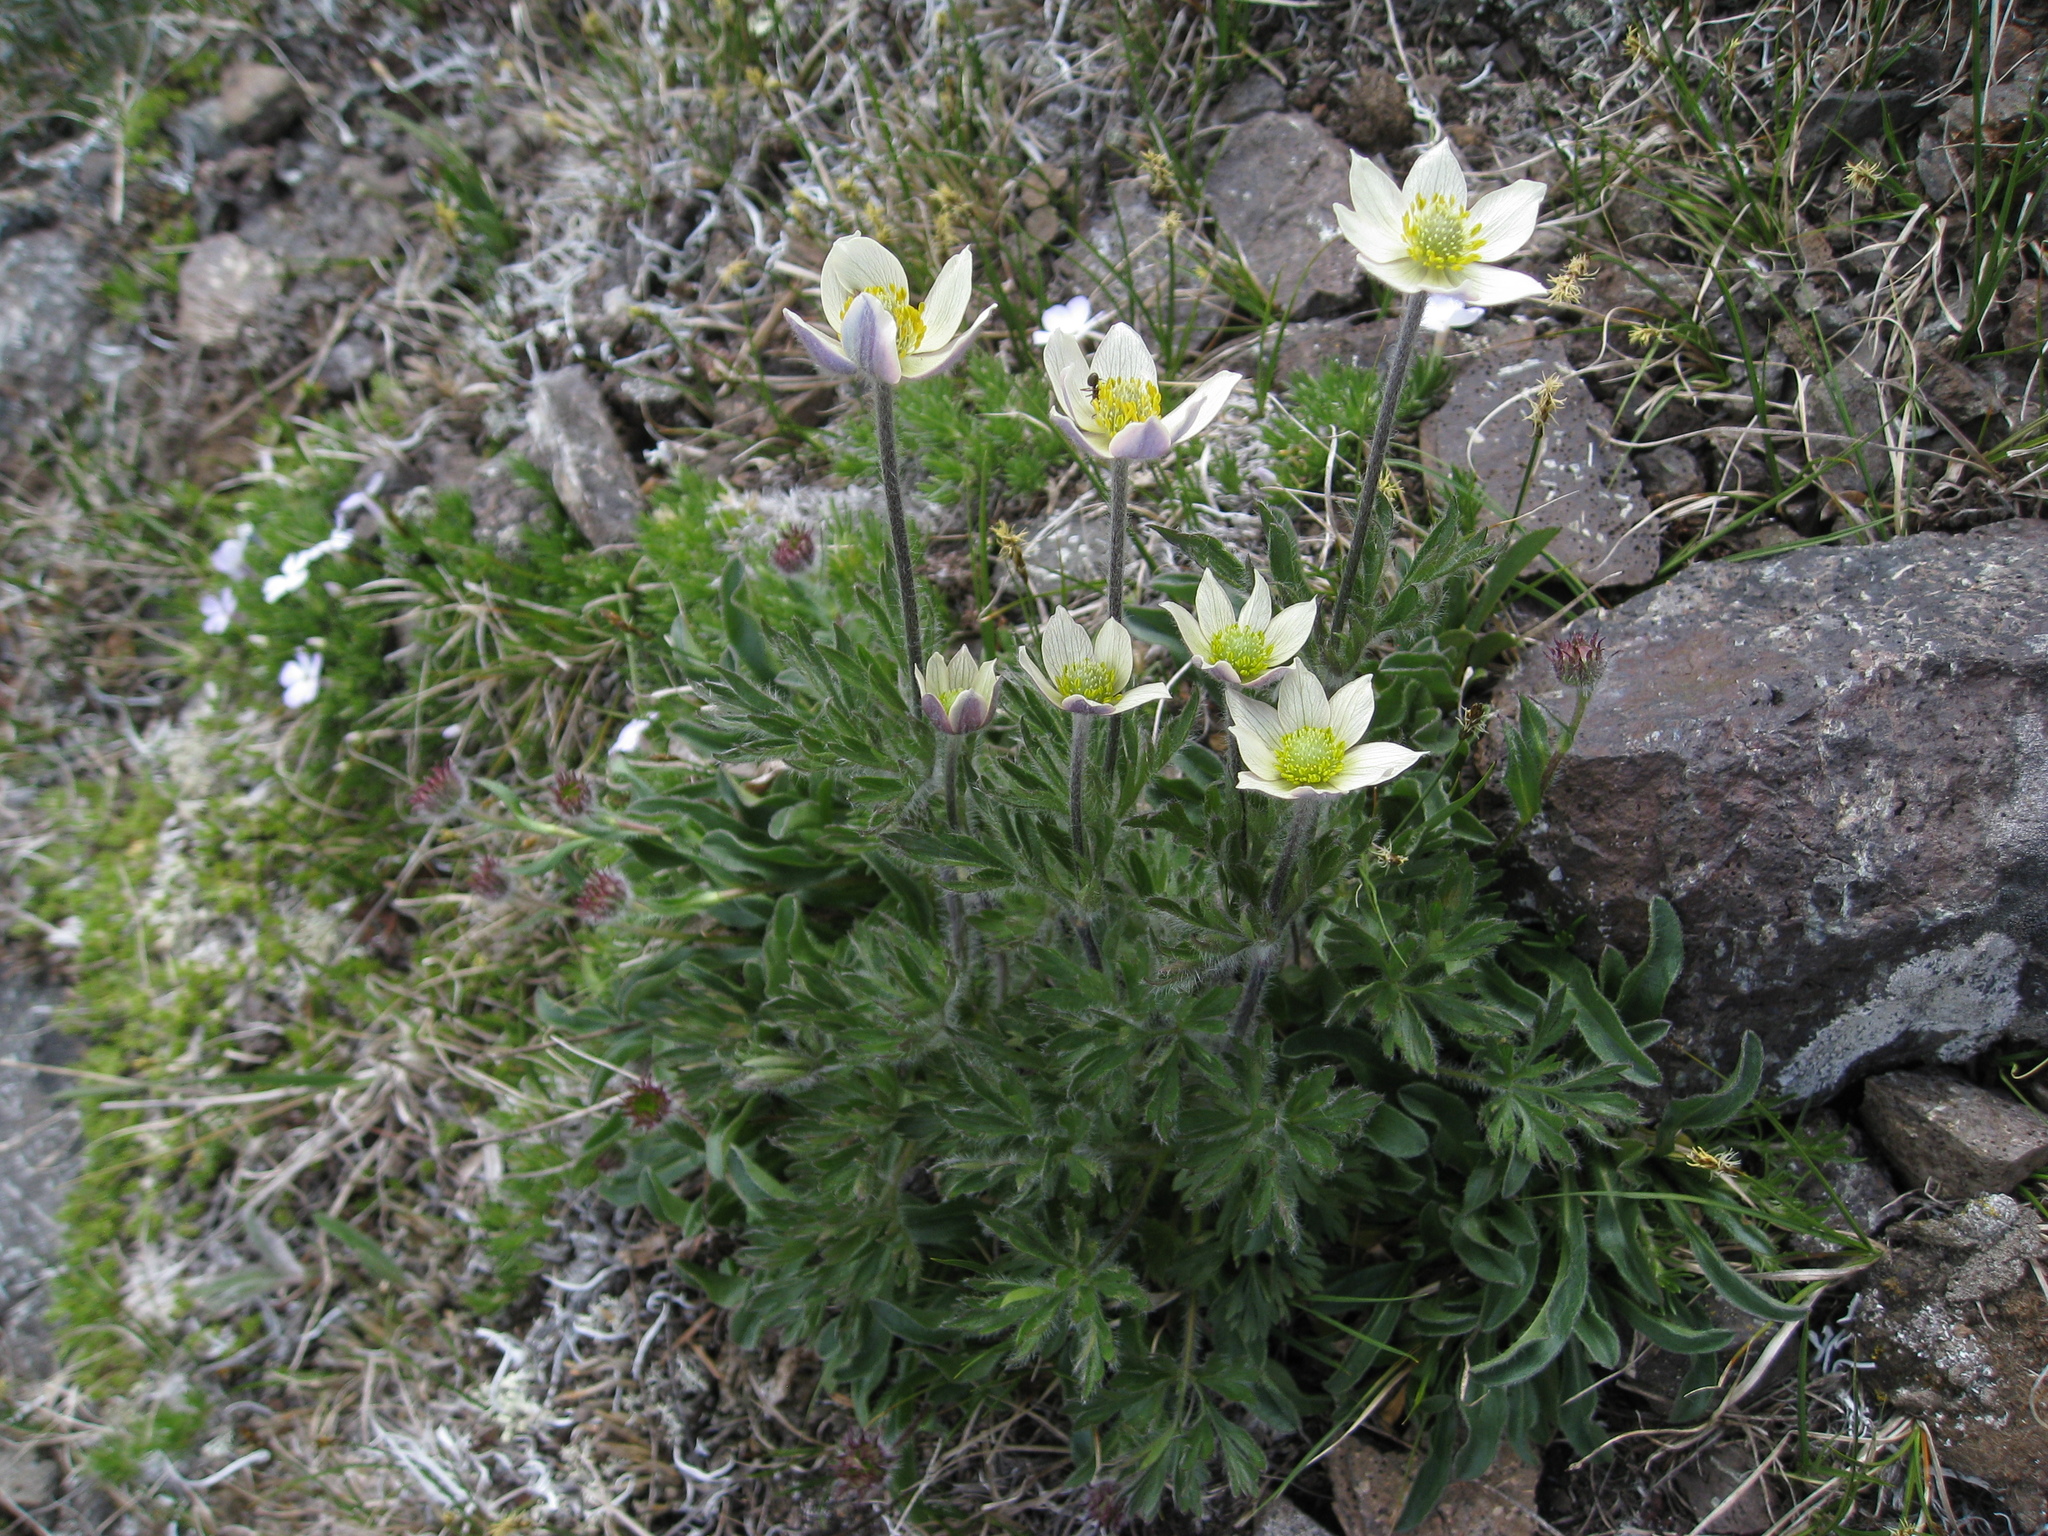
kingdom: Plantae
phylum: Tracheophyta
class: Magnoliopsida
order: Ranunculales
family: Ranunculaceae
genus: Anemone
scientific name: Anemone drummondii
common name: Drummond's anemone
